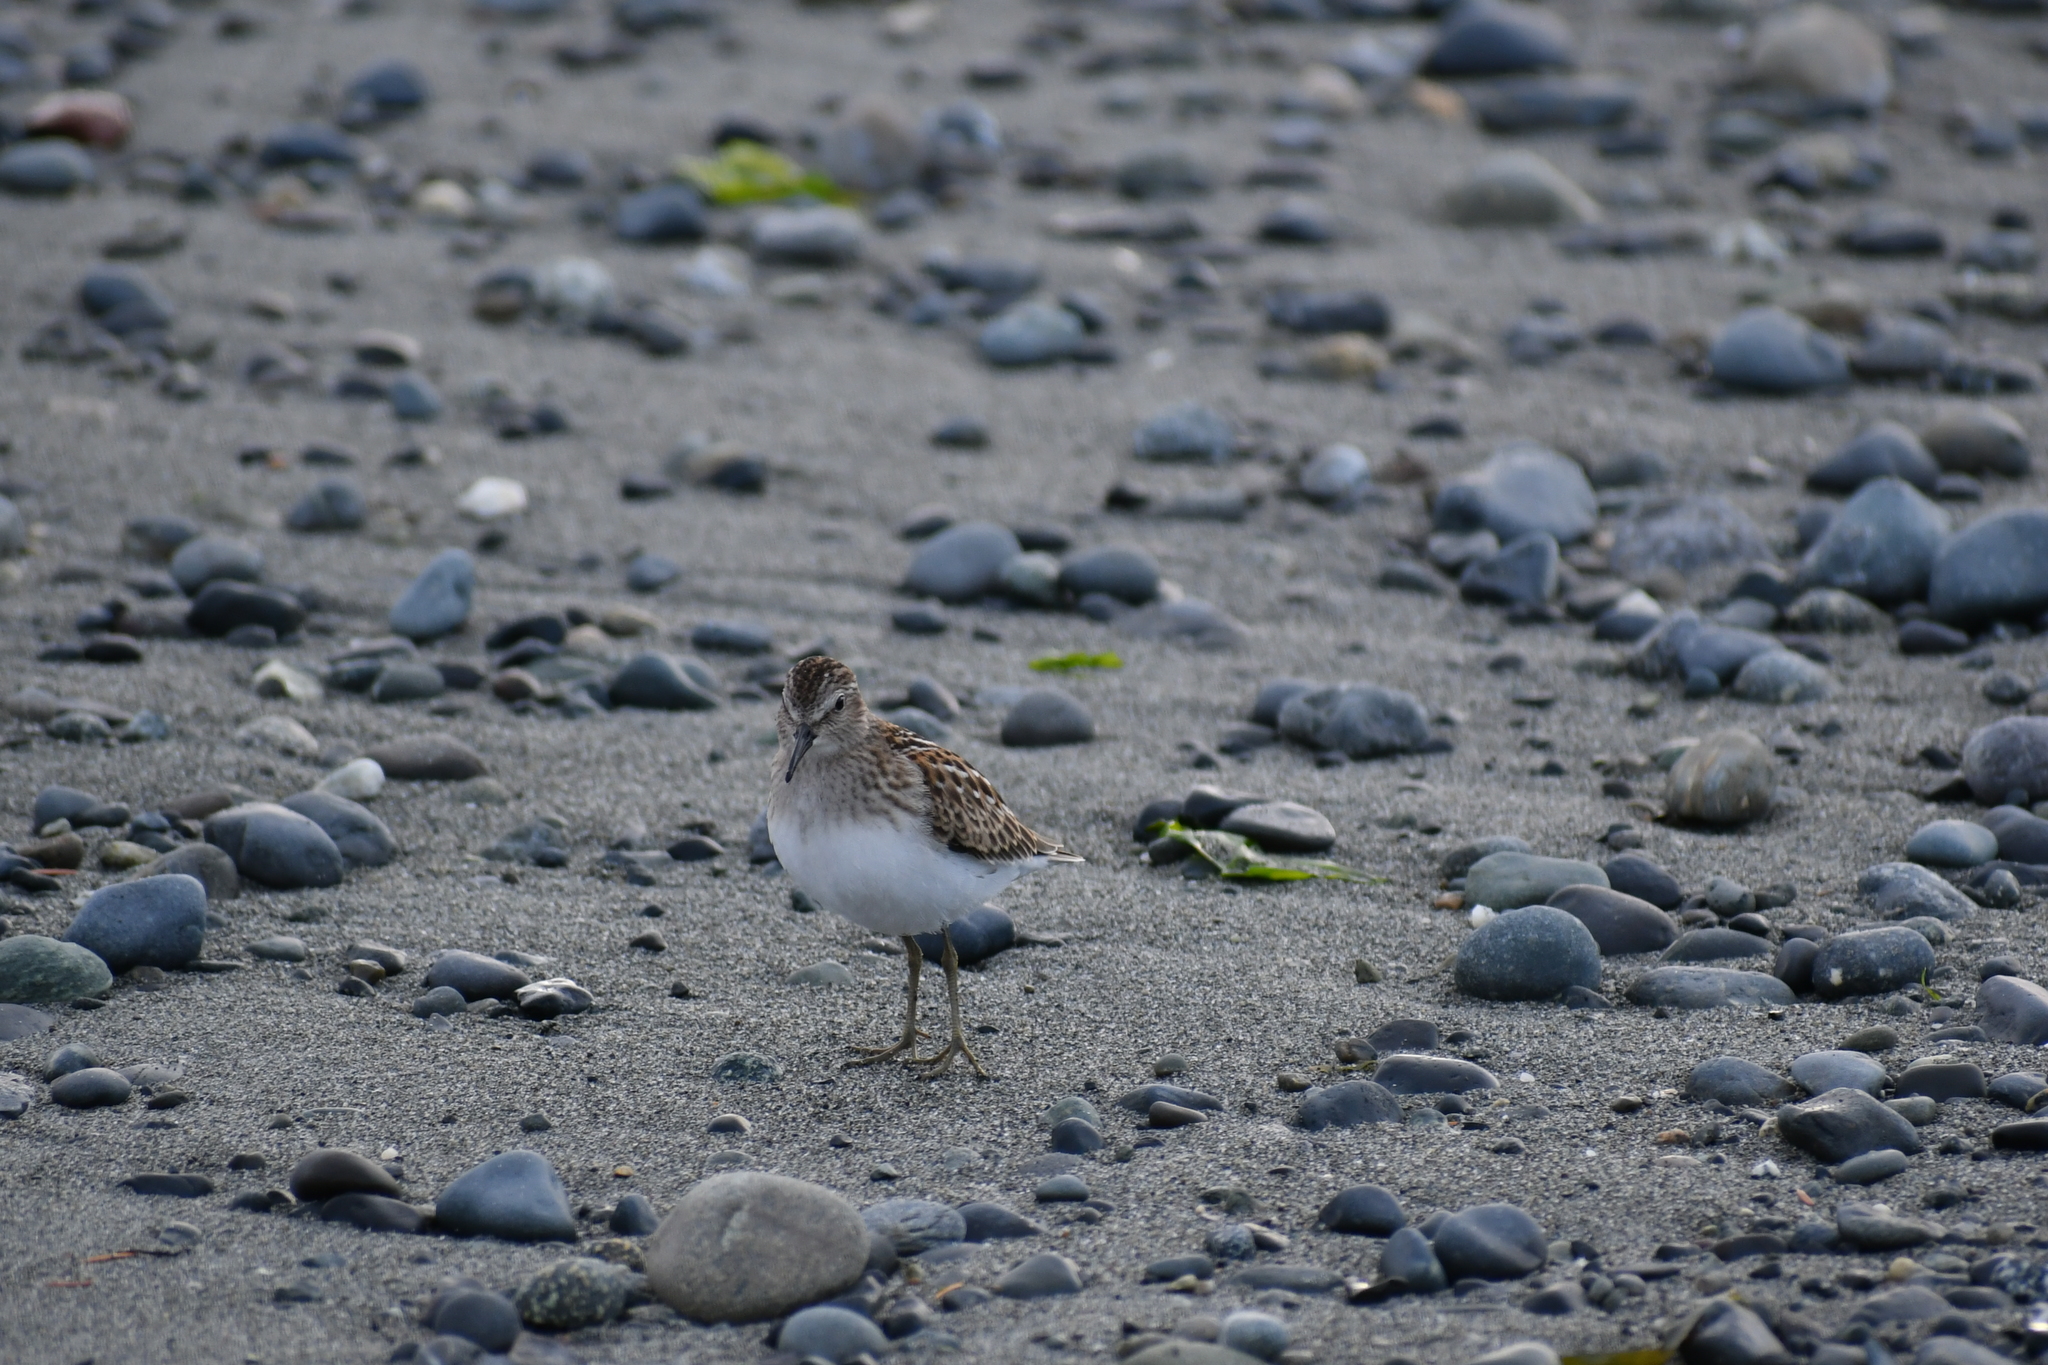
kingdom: Animalia
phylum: Chordata
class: Aves
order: Charadriiformes
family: Scolopacidae
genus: Calidris
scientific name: Calidris minutilla
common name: Least sandpiper
